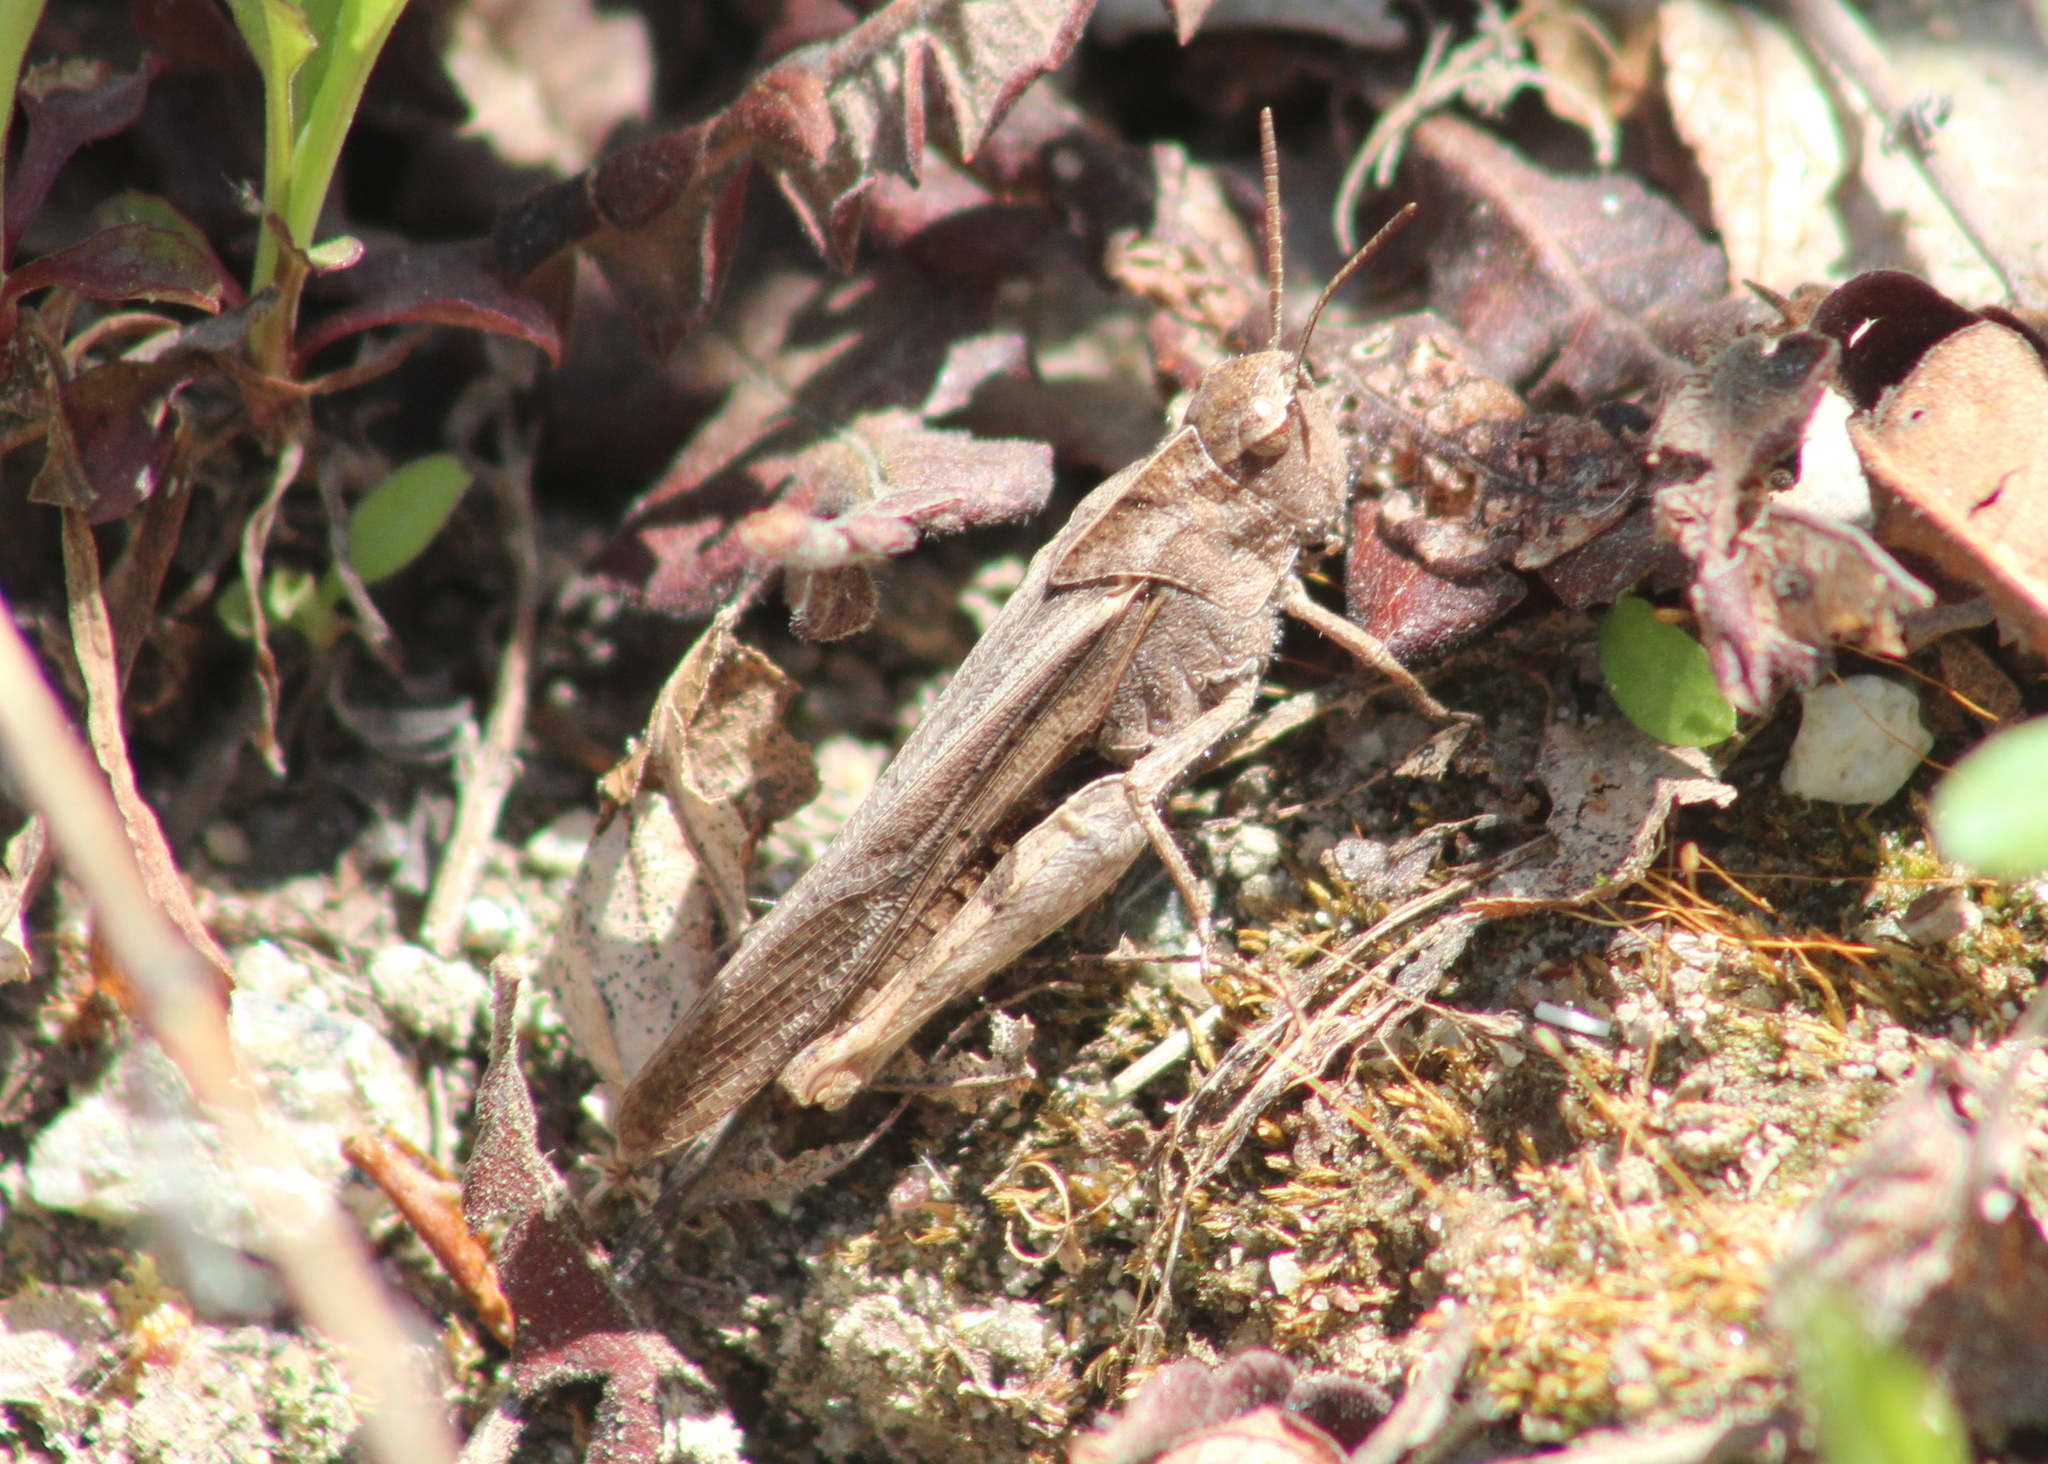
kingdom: Animalia
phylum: Arthropoda
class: Insecta
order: Orthoptera
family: Acrididae
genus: Chortophaga
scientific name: Chortophaga viridifasciata
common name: Green-striped grasshopper
